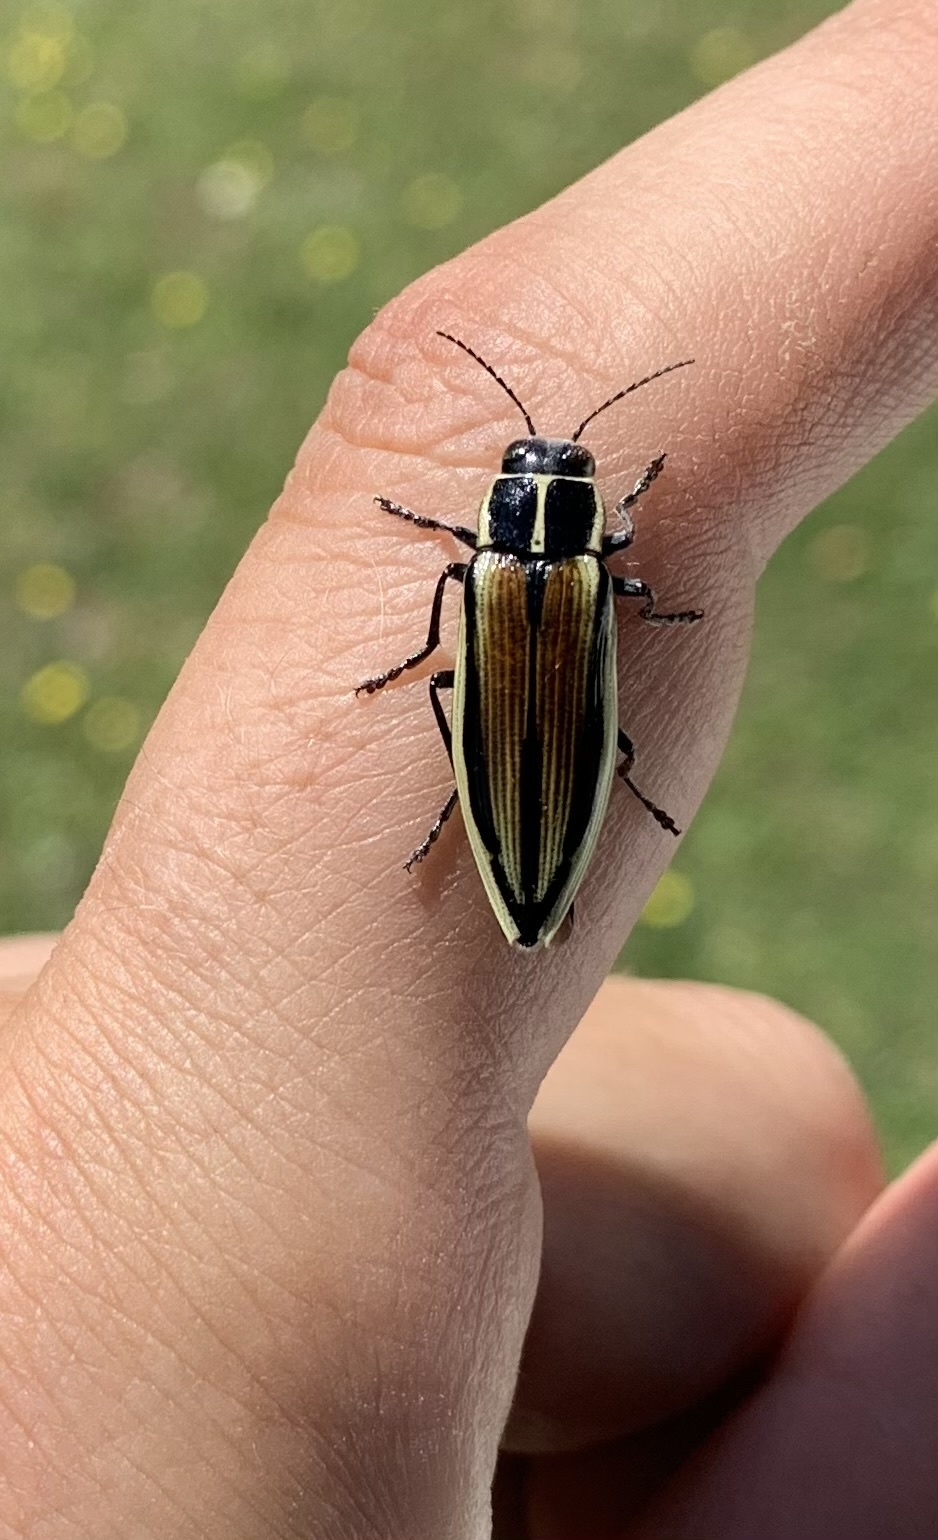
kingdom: Animalia
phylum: Arthropoda
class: Insecta
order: Coleoptera
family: Buprestidae
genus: Epistomentis
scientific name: Epistomentis pictus
